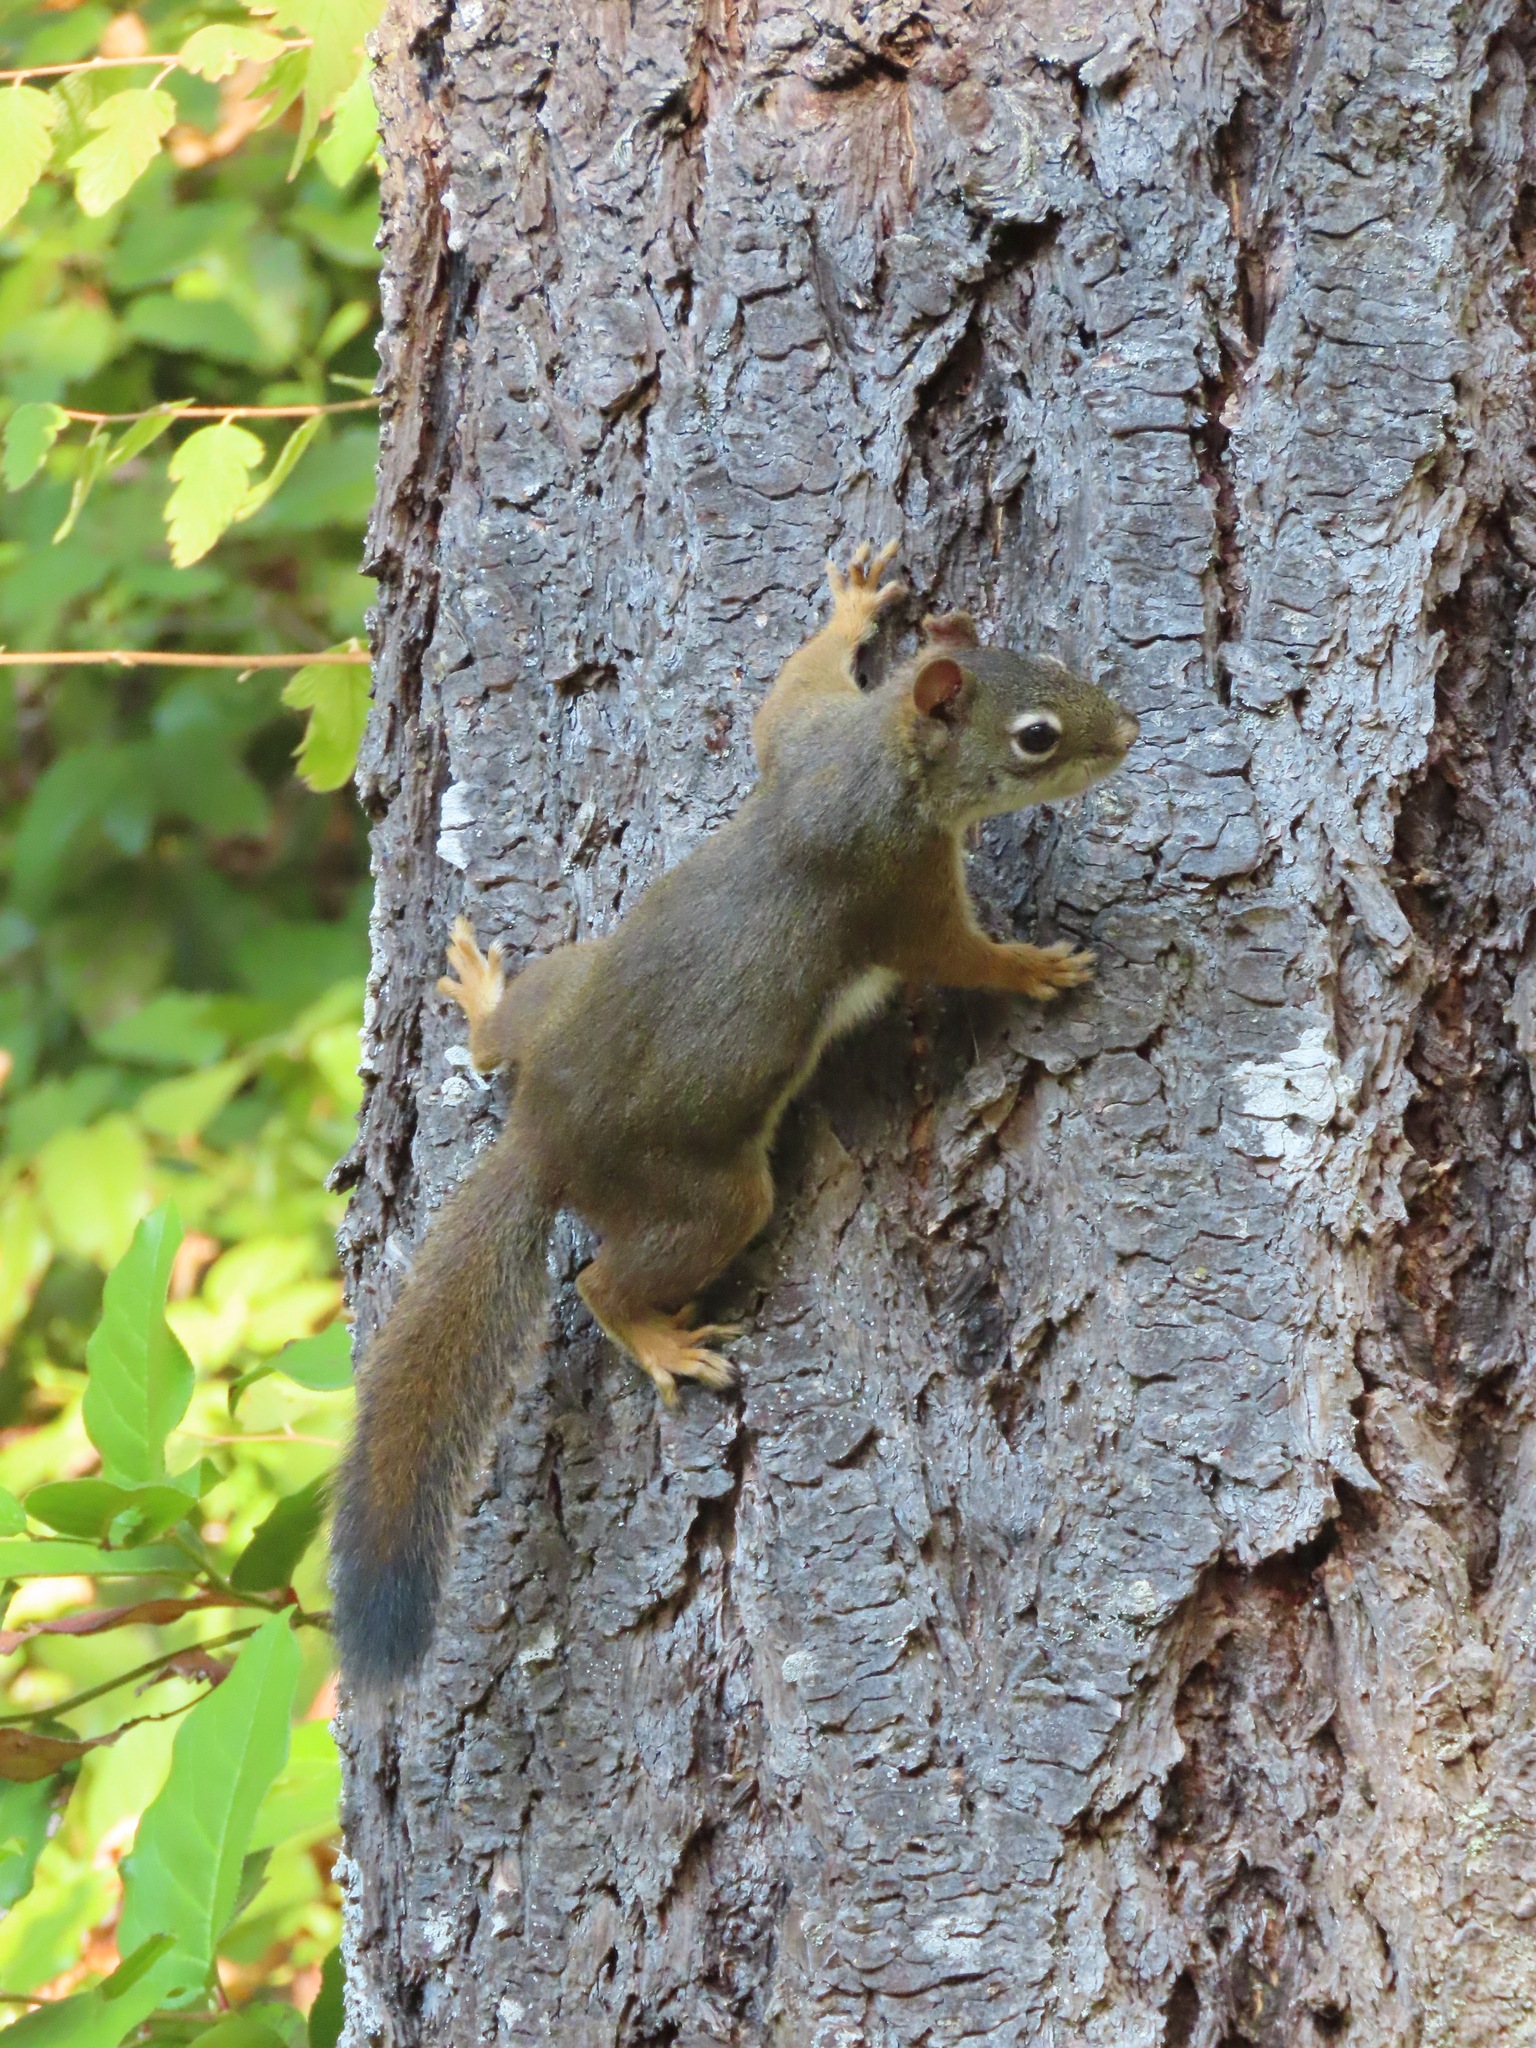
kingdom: Animalia
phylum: Chordata
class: Mammalia
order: Rodentia
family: Sciuridae
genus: Tamiasciurus
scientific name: Tamiasciurus hudsonicus
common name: Red squirrel
